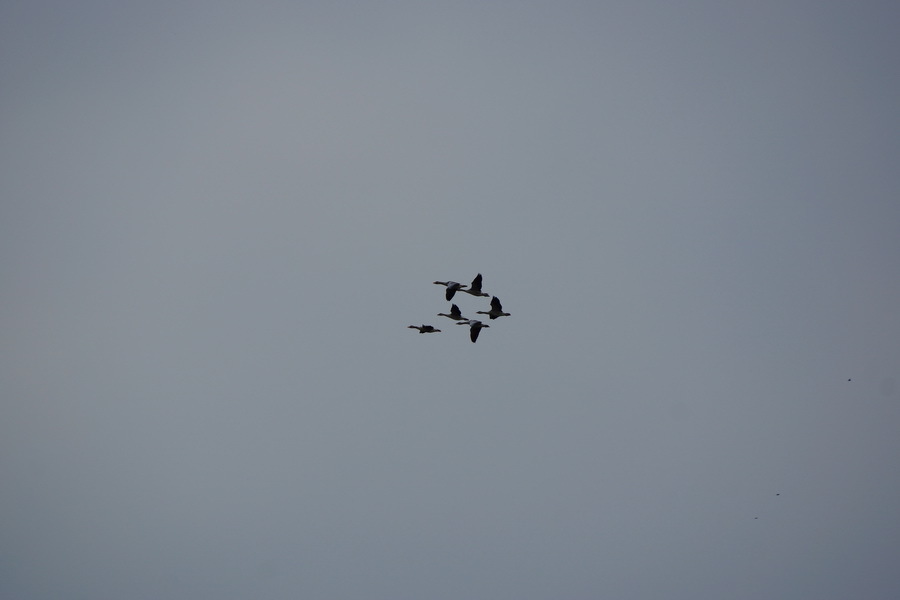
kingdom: Animalia
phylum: Chordata
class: Aves
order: Anseriformes
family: Anatidae
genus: Anser
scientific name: Anser anser
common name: Greylag goose
